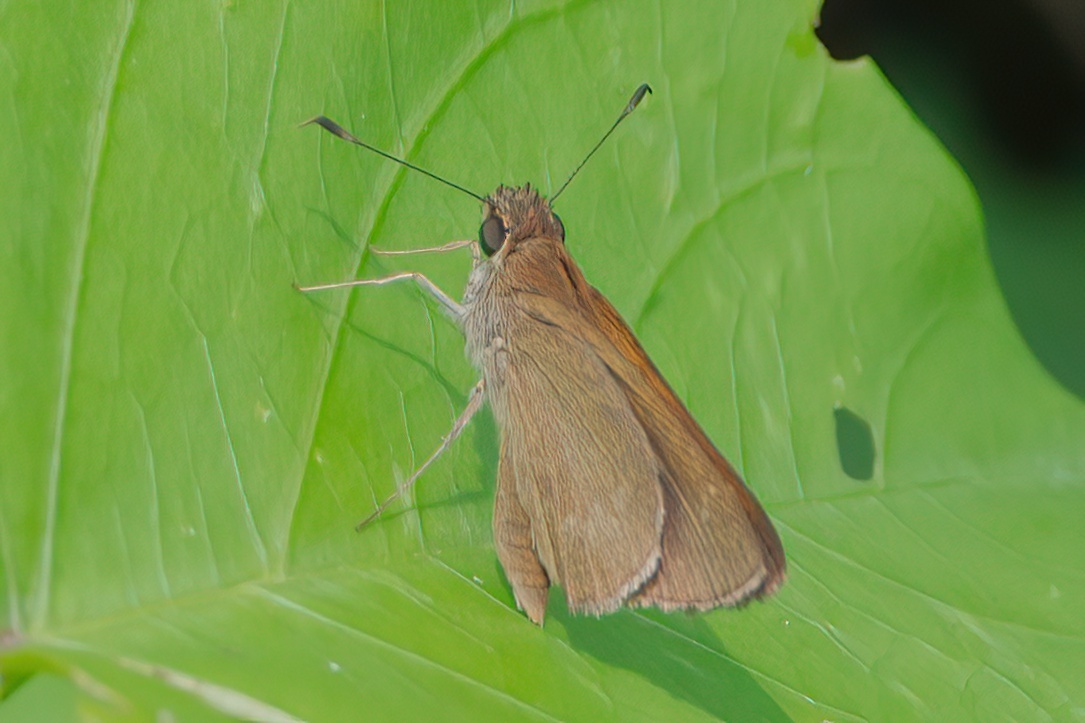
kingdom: Animalia
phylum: Arthropoda
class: Insecta
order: Lepidoptera
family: Hesperiidae
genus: Cymaenes
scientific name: Cymaenes tripunctus
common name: Dingy dotted skipper
